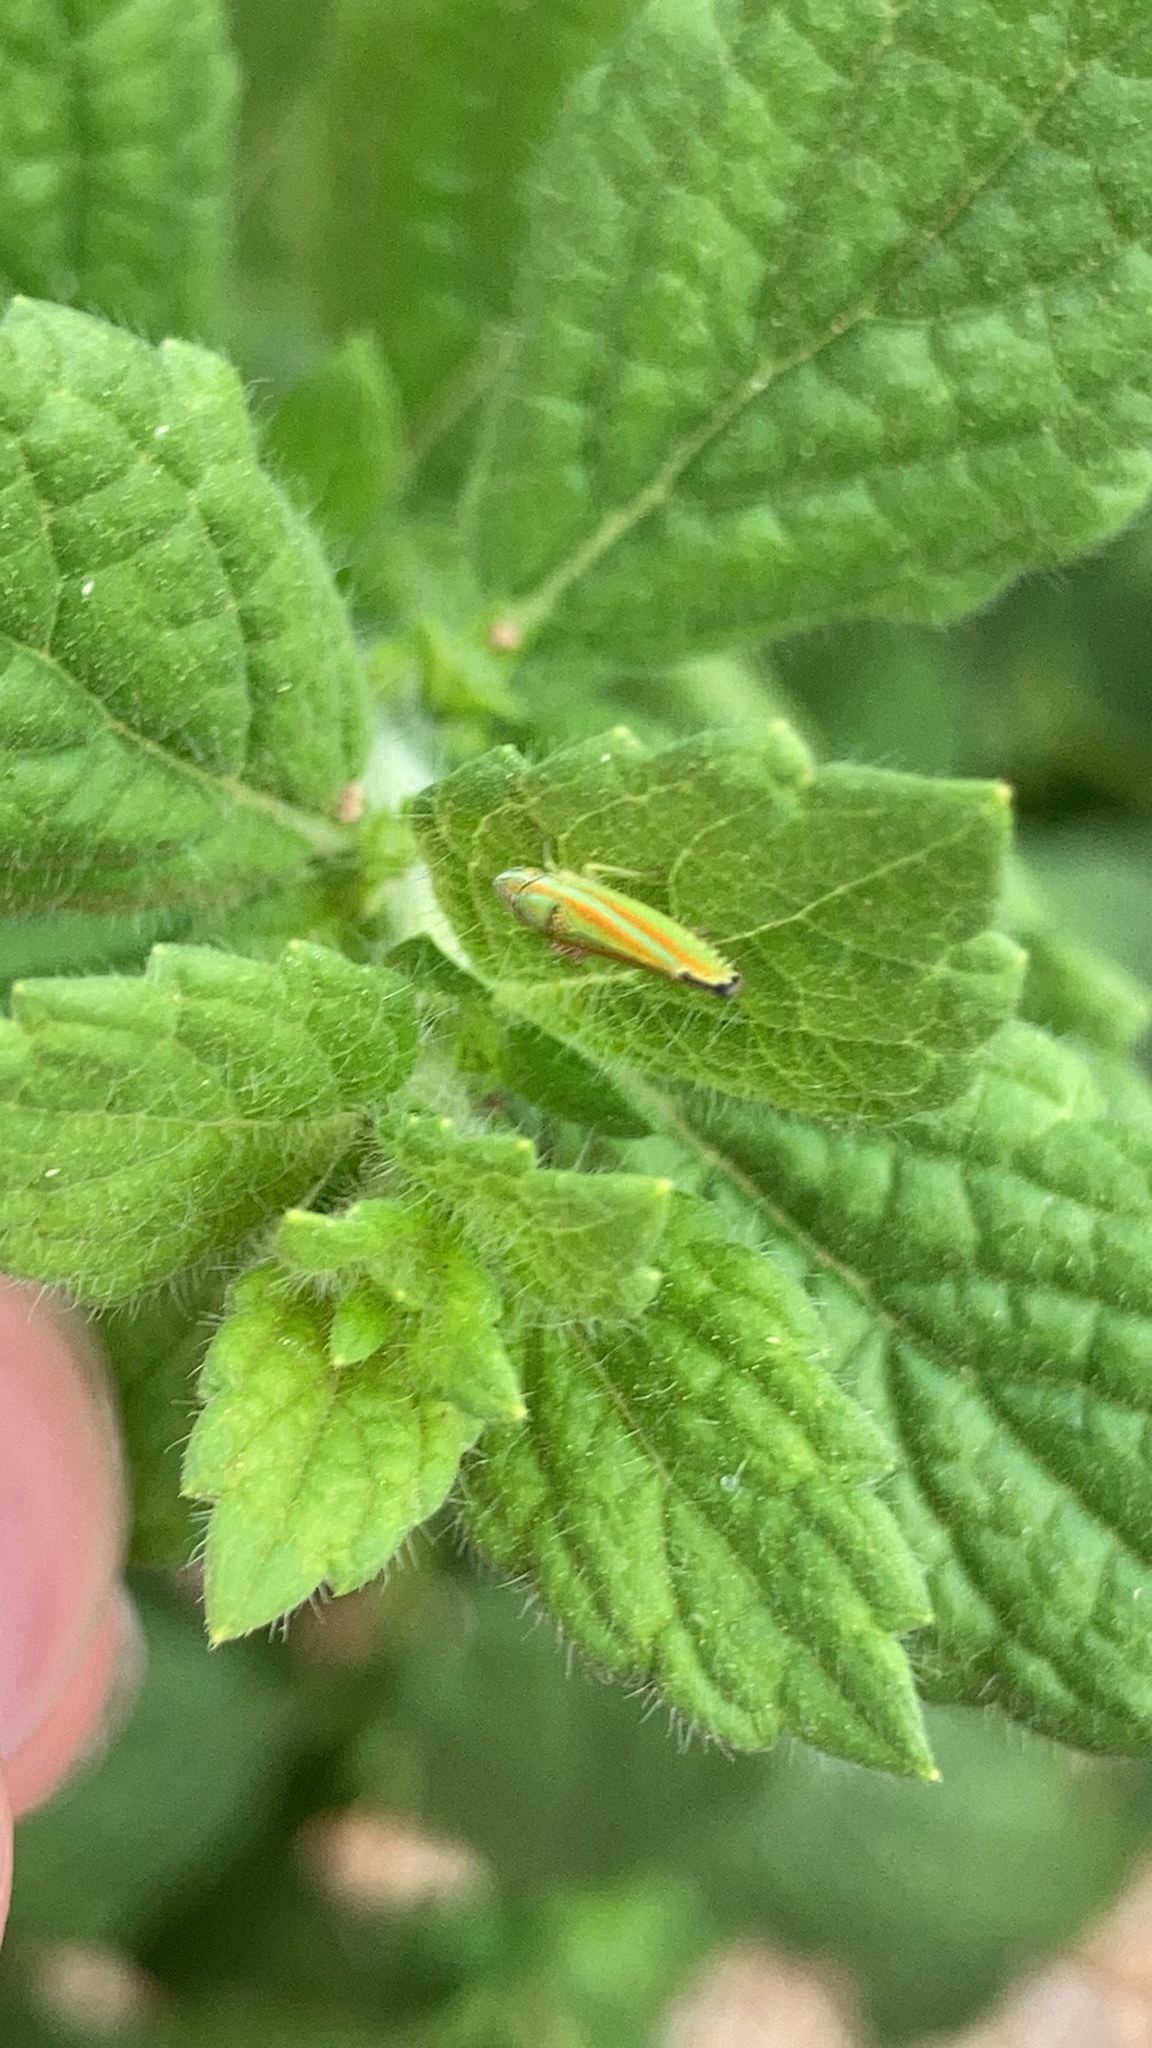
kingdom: Animalia
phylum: Arthropoda
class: Insecta
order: Hemiptera
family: Cicadellidae
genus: Graphocephala
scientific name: Graphocephala versuta
